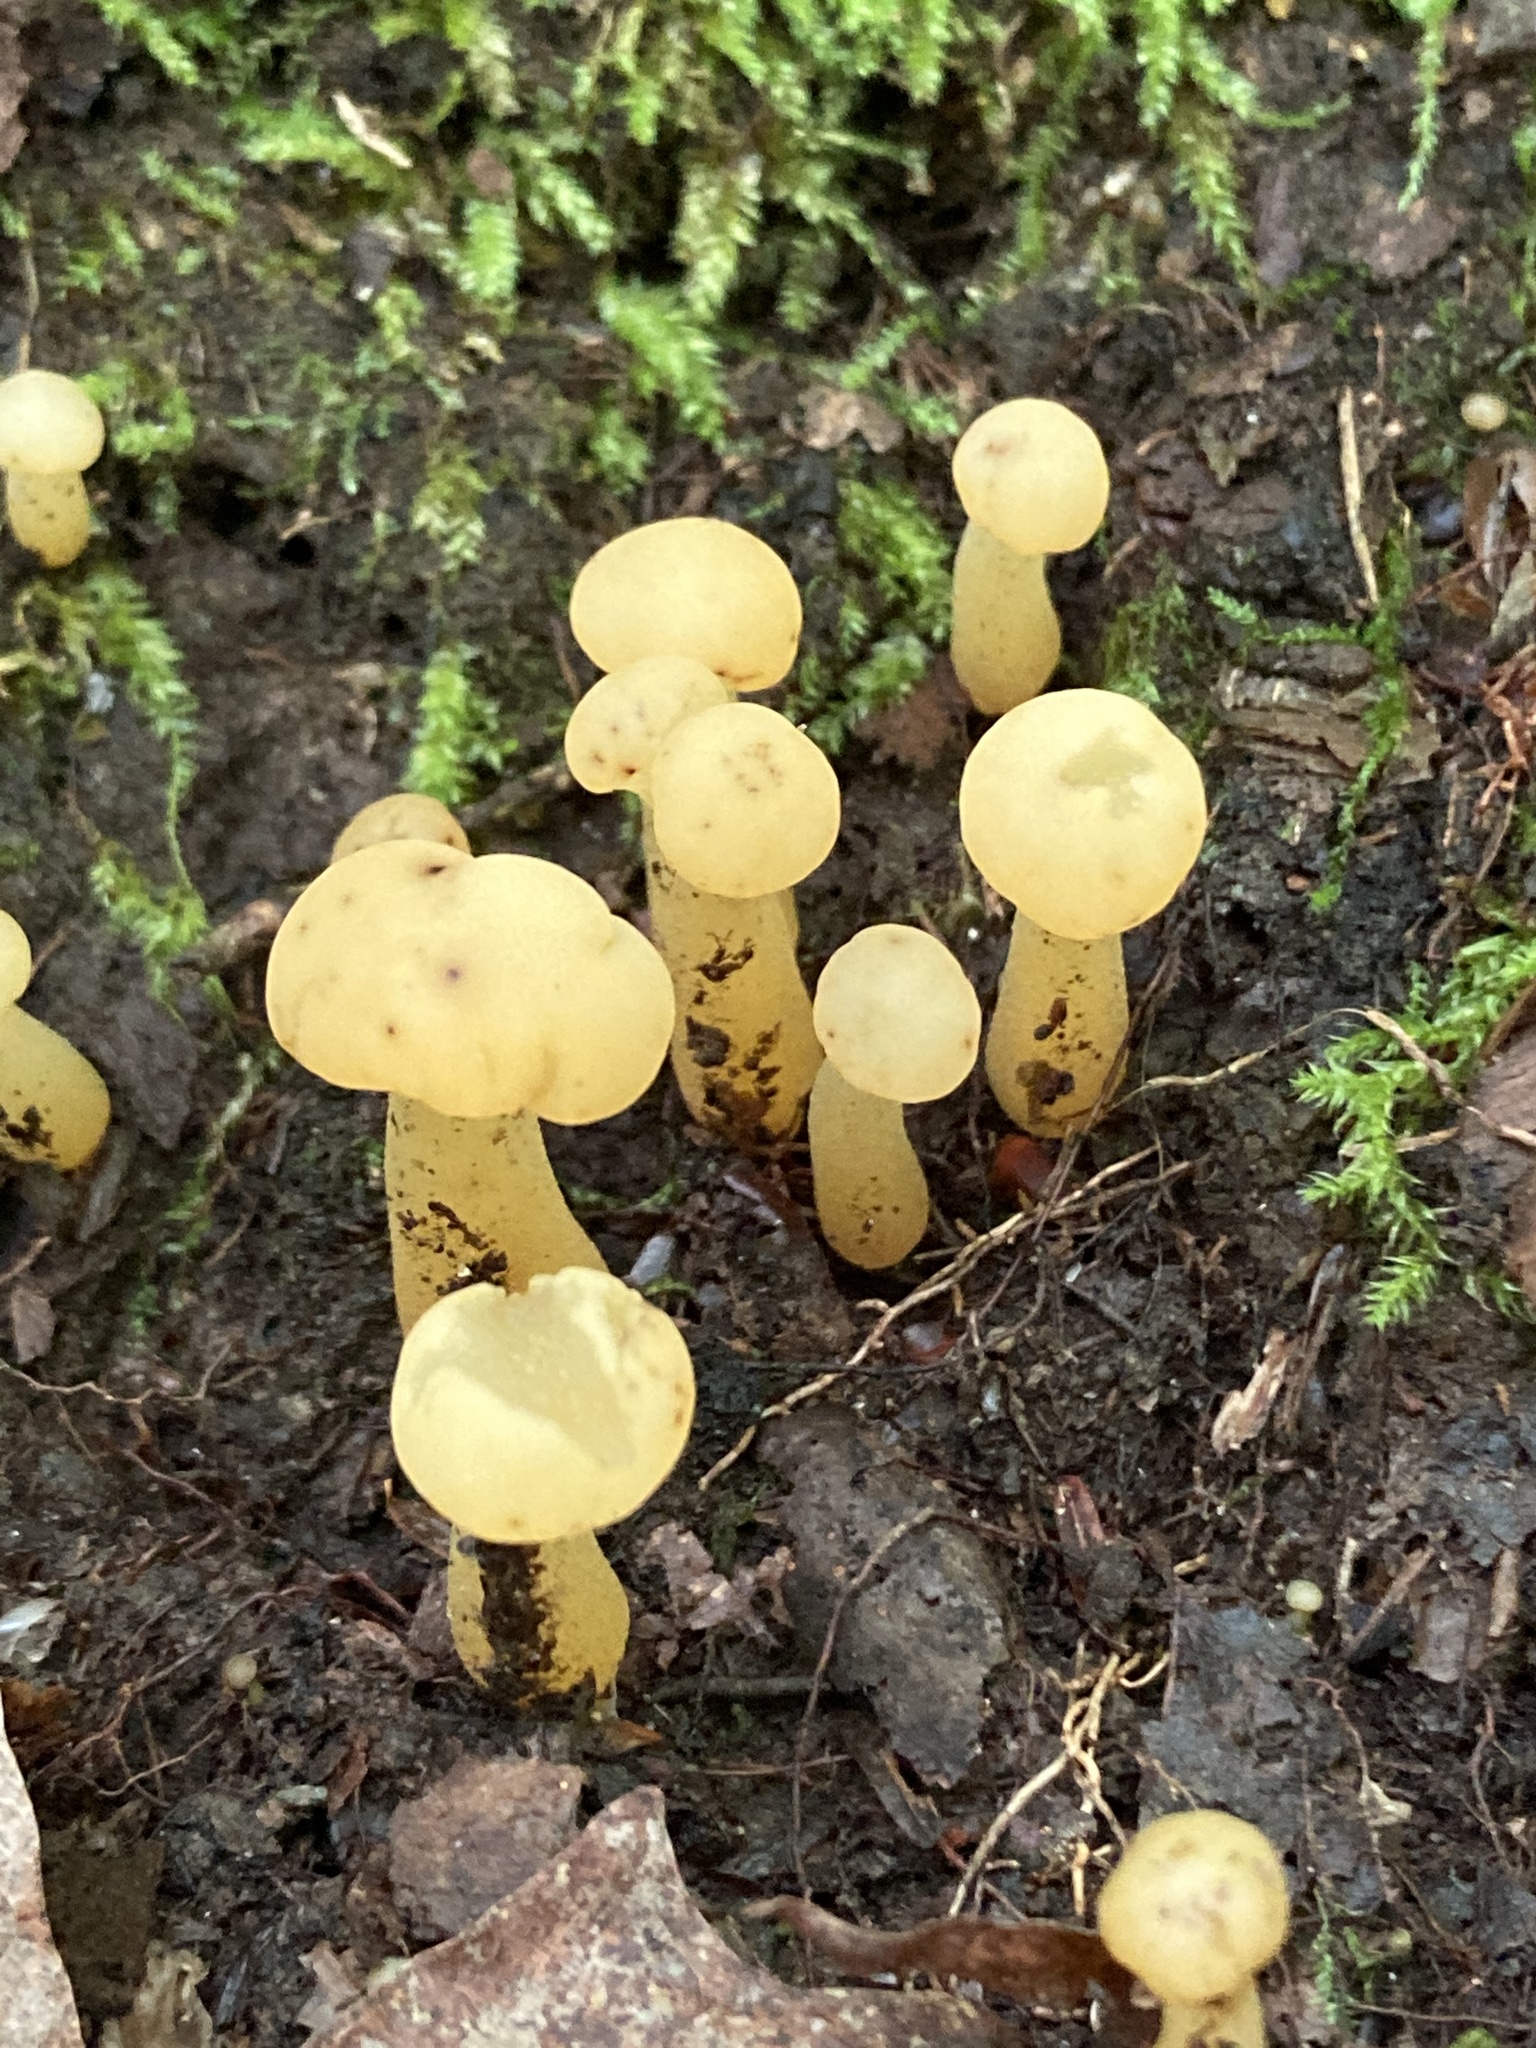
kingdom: Fungi
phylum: Ascomycota
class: Leotiomycetes
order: Leotiales
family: Leotiaceae
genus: Leotia
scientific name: Leotia lubrica
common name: Jellybaby
